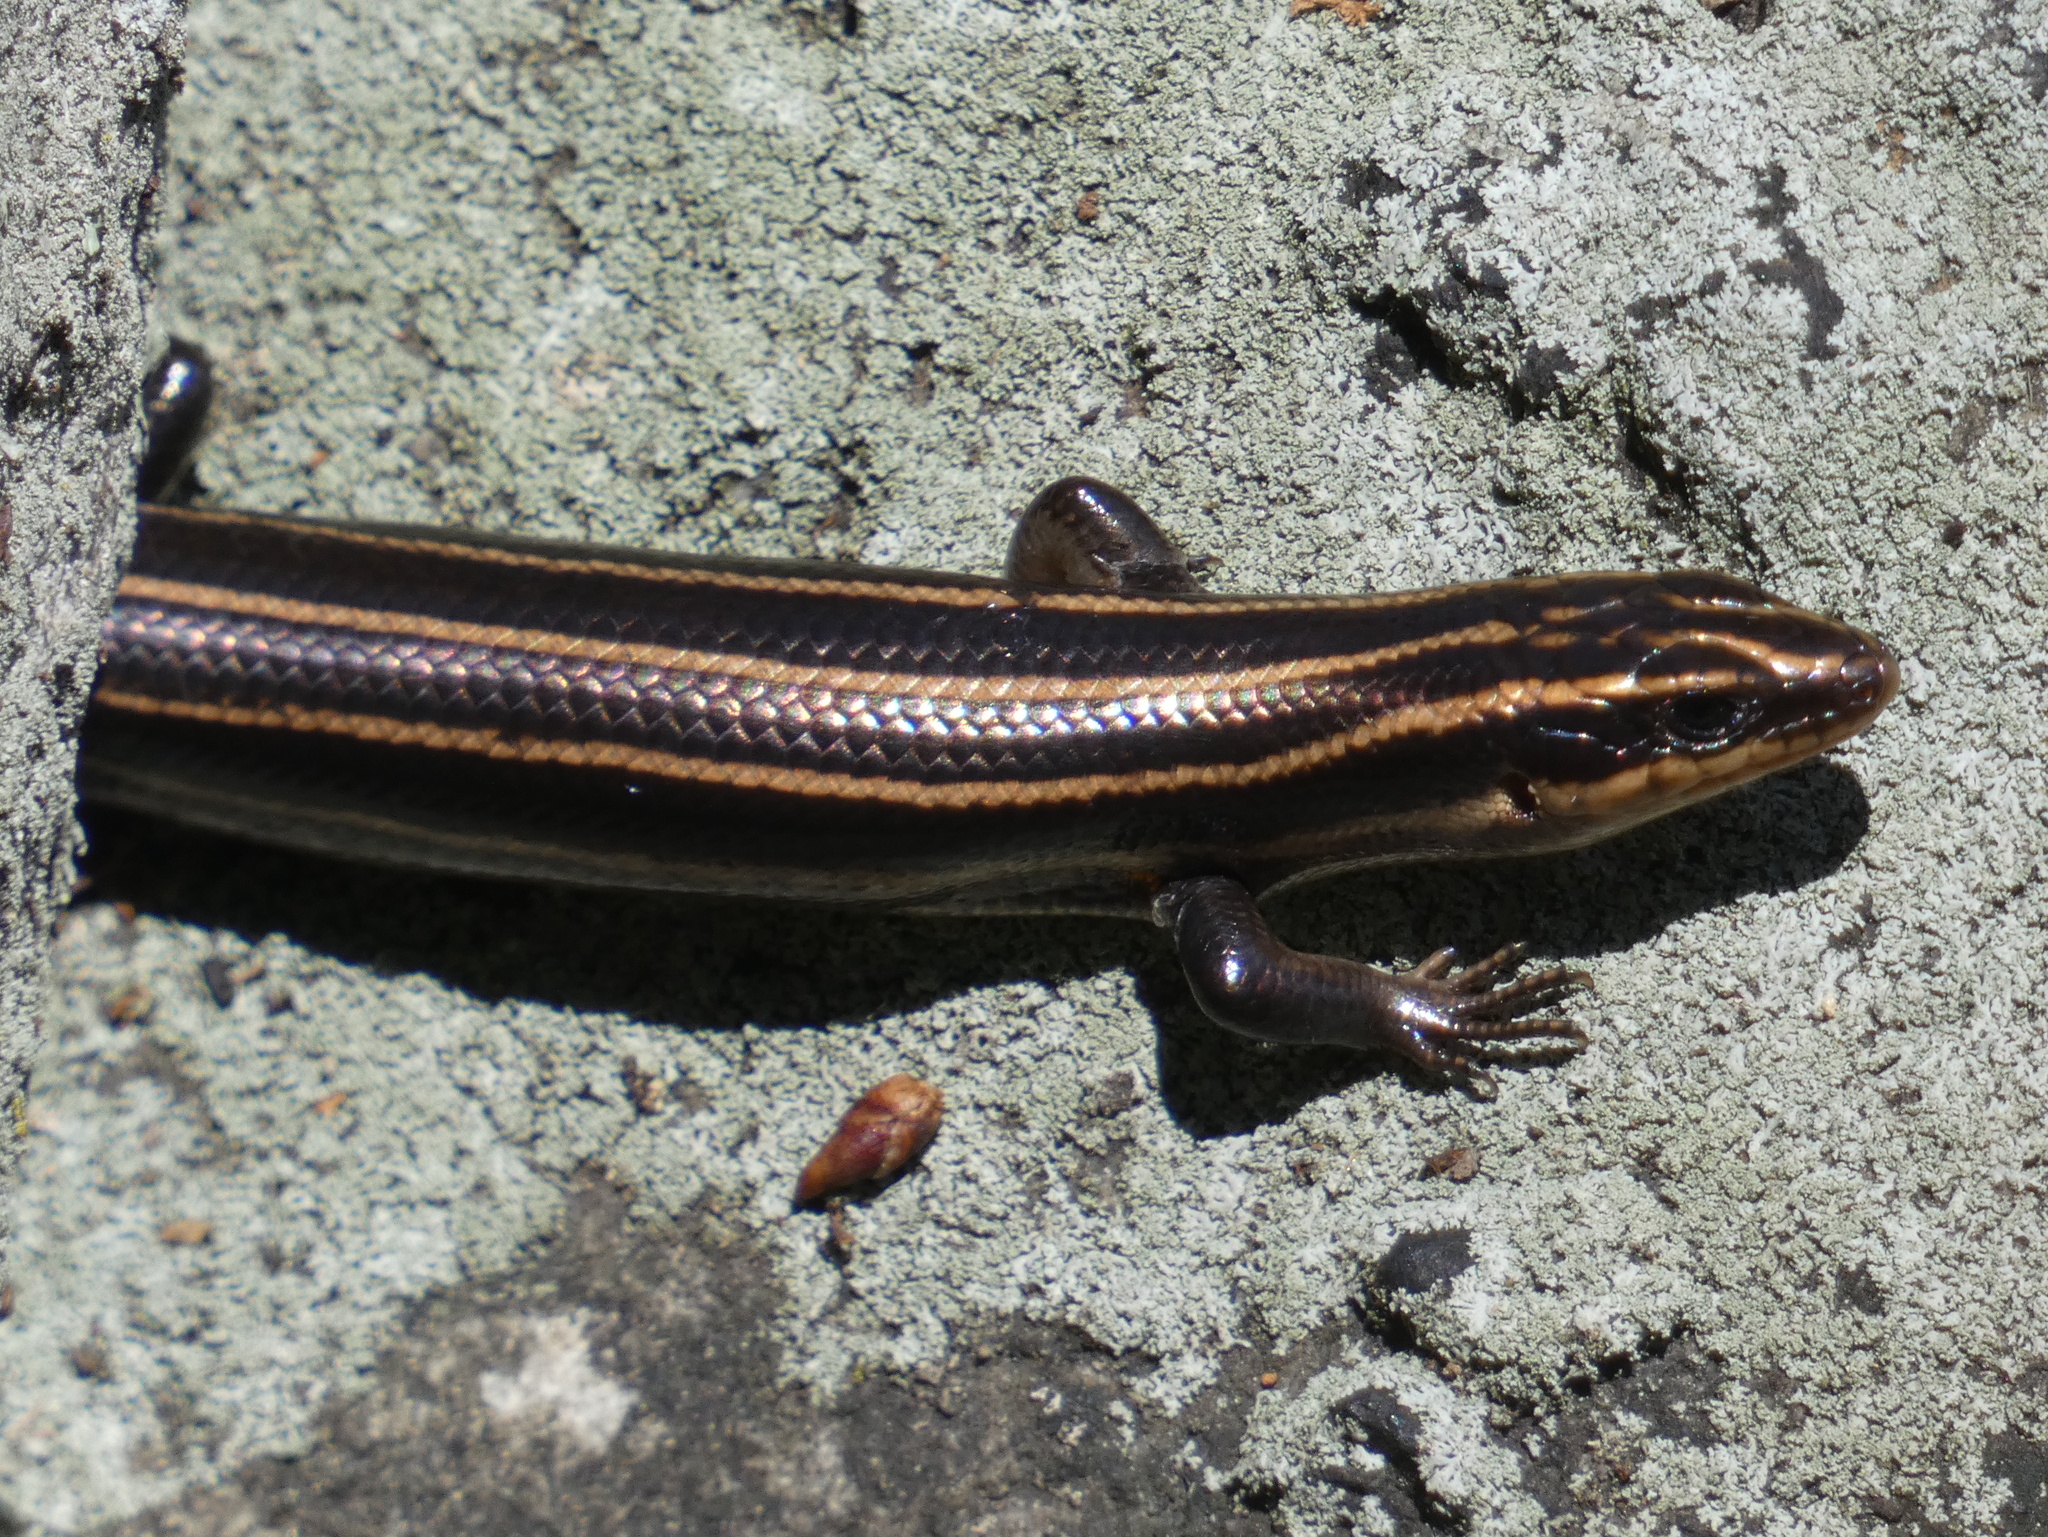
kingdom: Animalia
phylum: Chordata
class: Squamata
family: Scincidae
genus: Plestiodon
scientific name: Plestiodon fasciatus
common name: Five-lined skink
